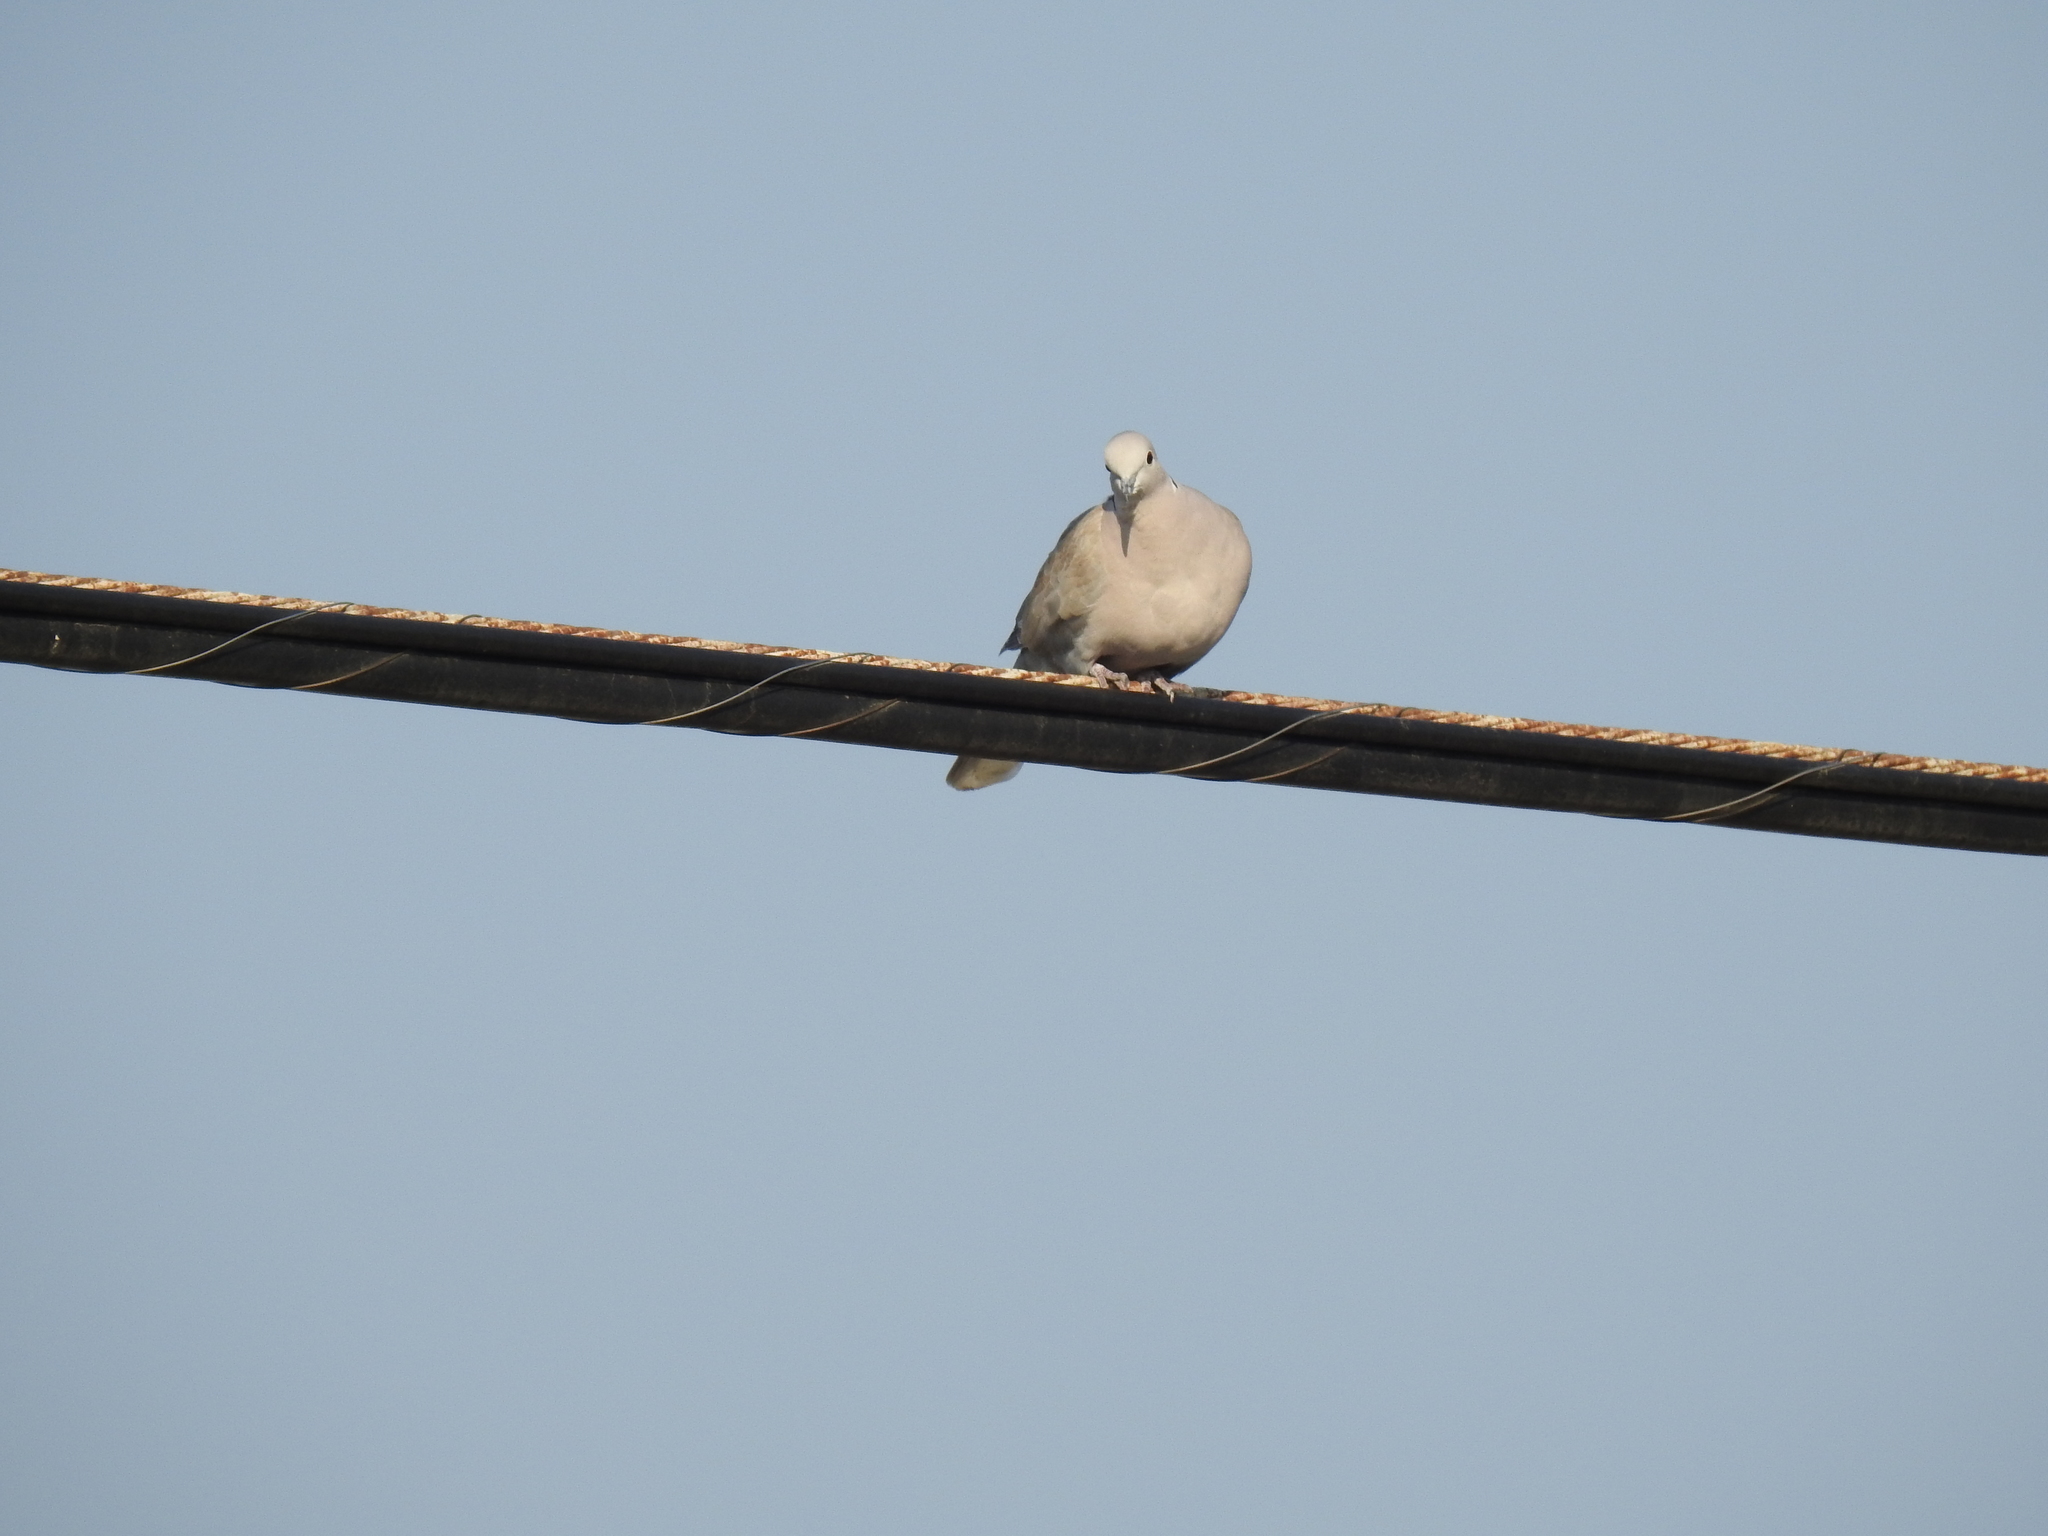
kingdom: Animalia
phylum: Chordata
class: Aves
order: Columbiformes
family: Columbidae
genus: Streptopelia
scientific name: Streptopelia decaocto
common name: Eurasian collared dove
